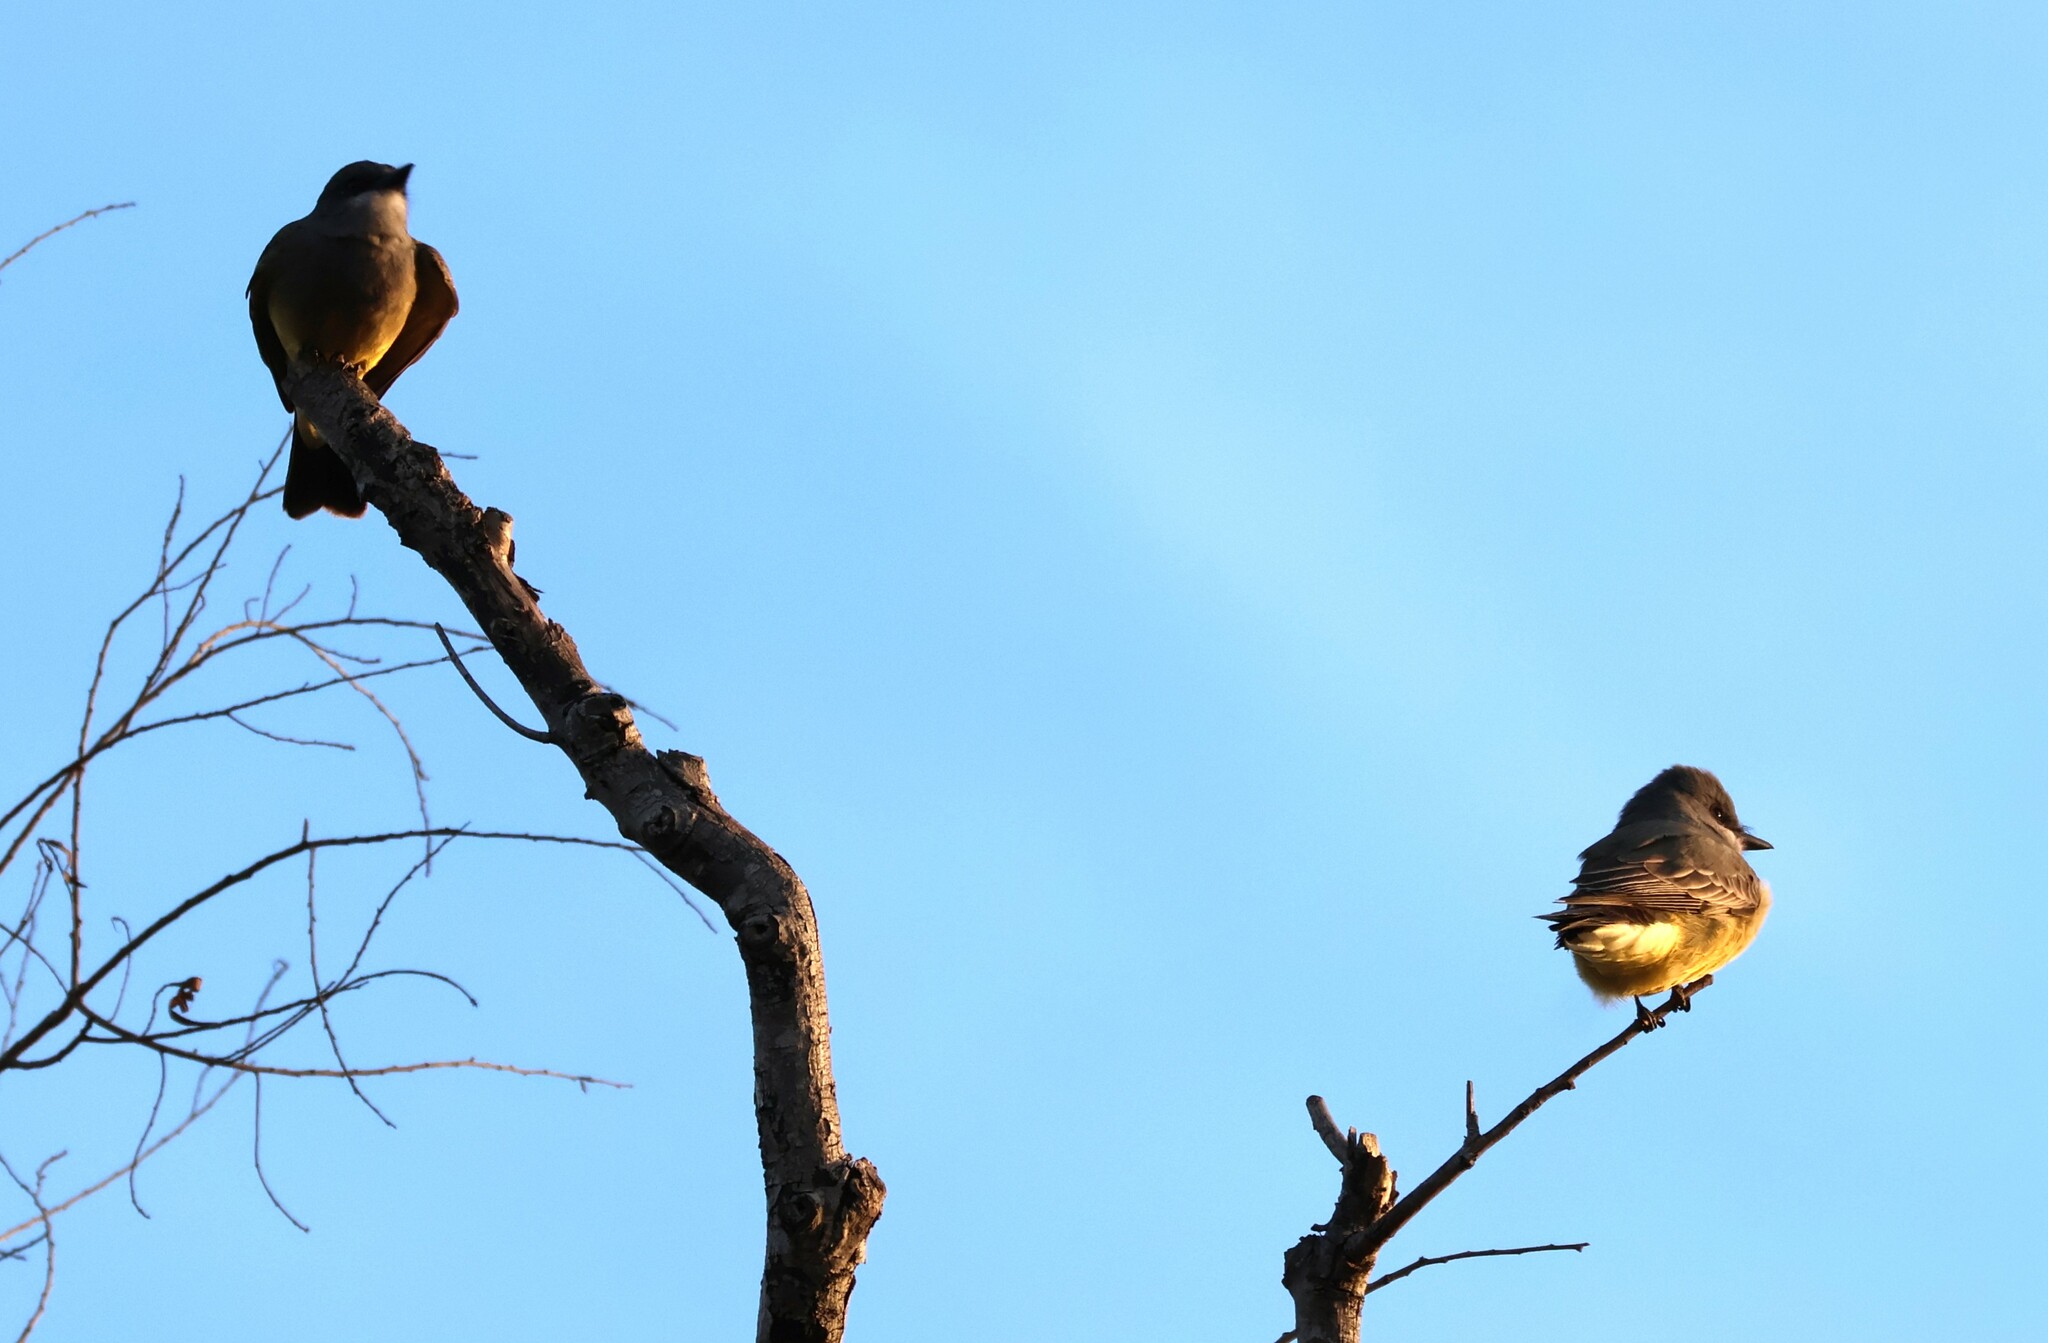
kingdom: Animalia
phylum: Chordata
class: Aves
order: Passeriformes
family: Tyrannidae
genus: Tyrannus
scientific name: Tyrannus vociferans
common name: Cassin's kingbird
